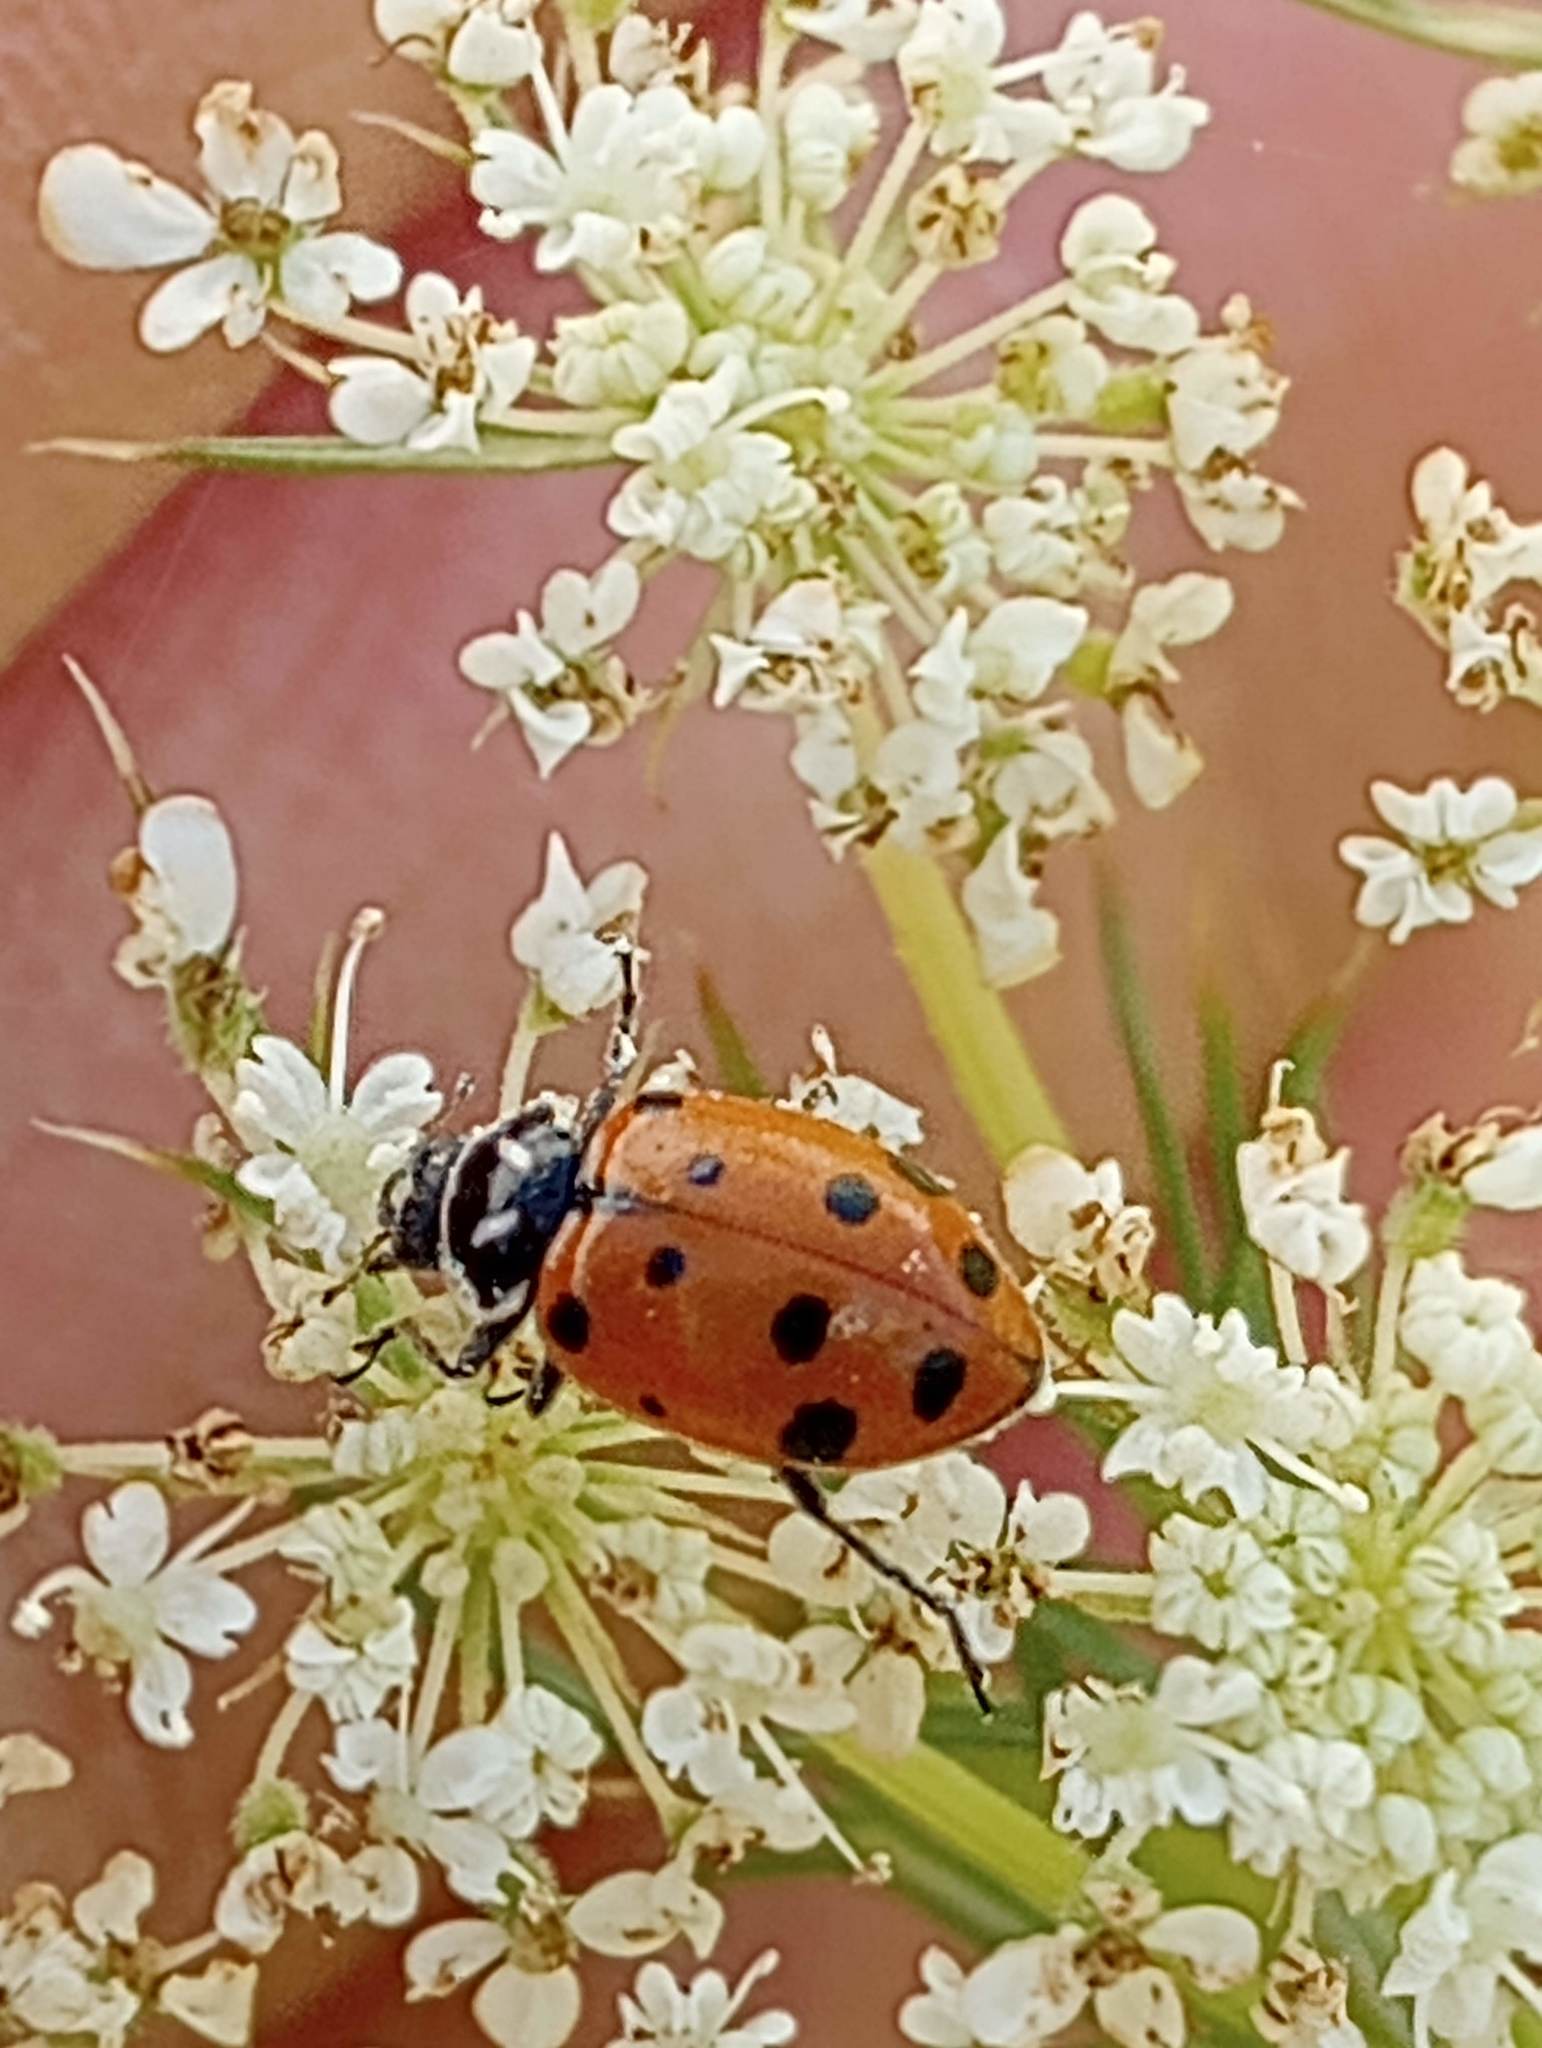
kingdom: Animalia
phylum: Arthropoda
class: Insecta
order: Coleoptera
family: Coccinellidae
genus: Hippodamia
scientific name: Hippodamia convergens
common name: Convergent lady beetle
